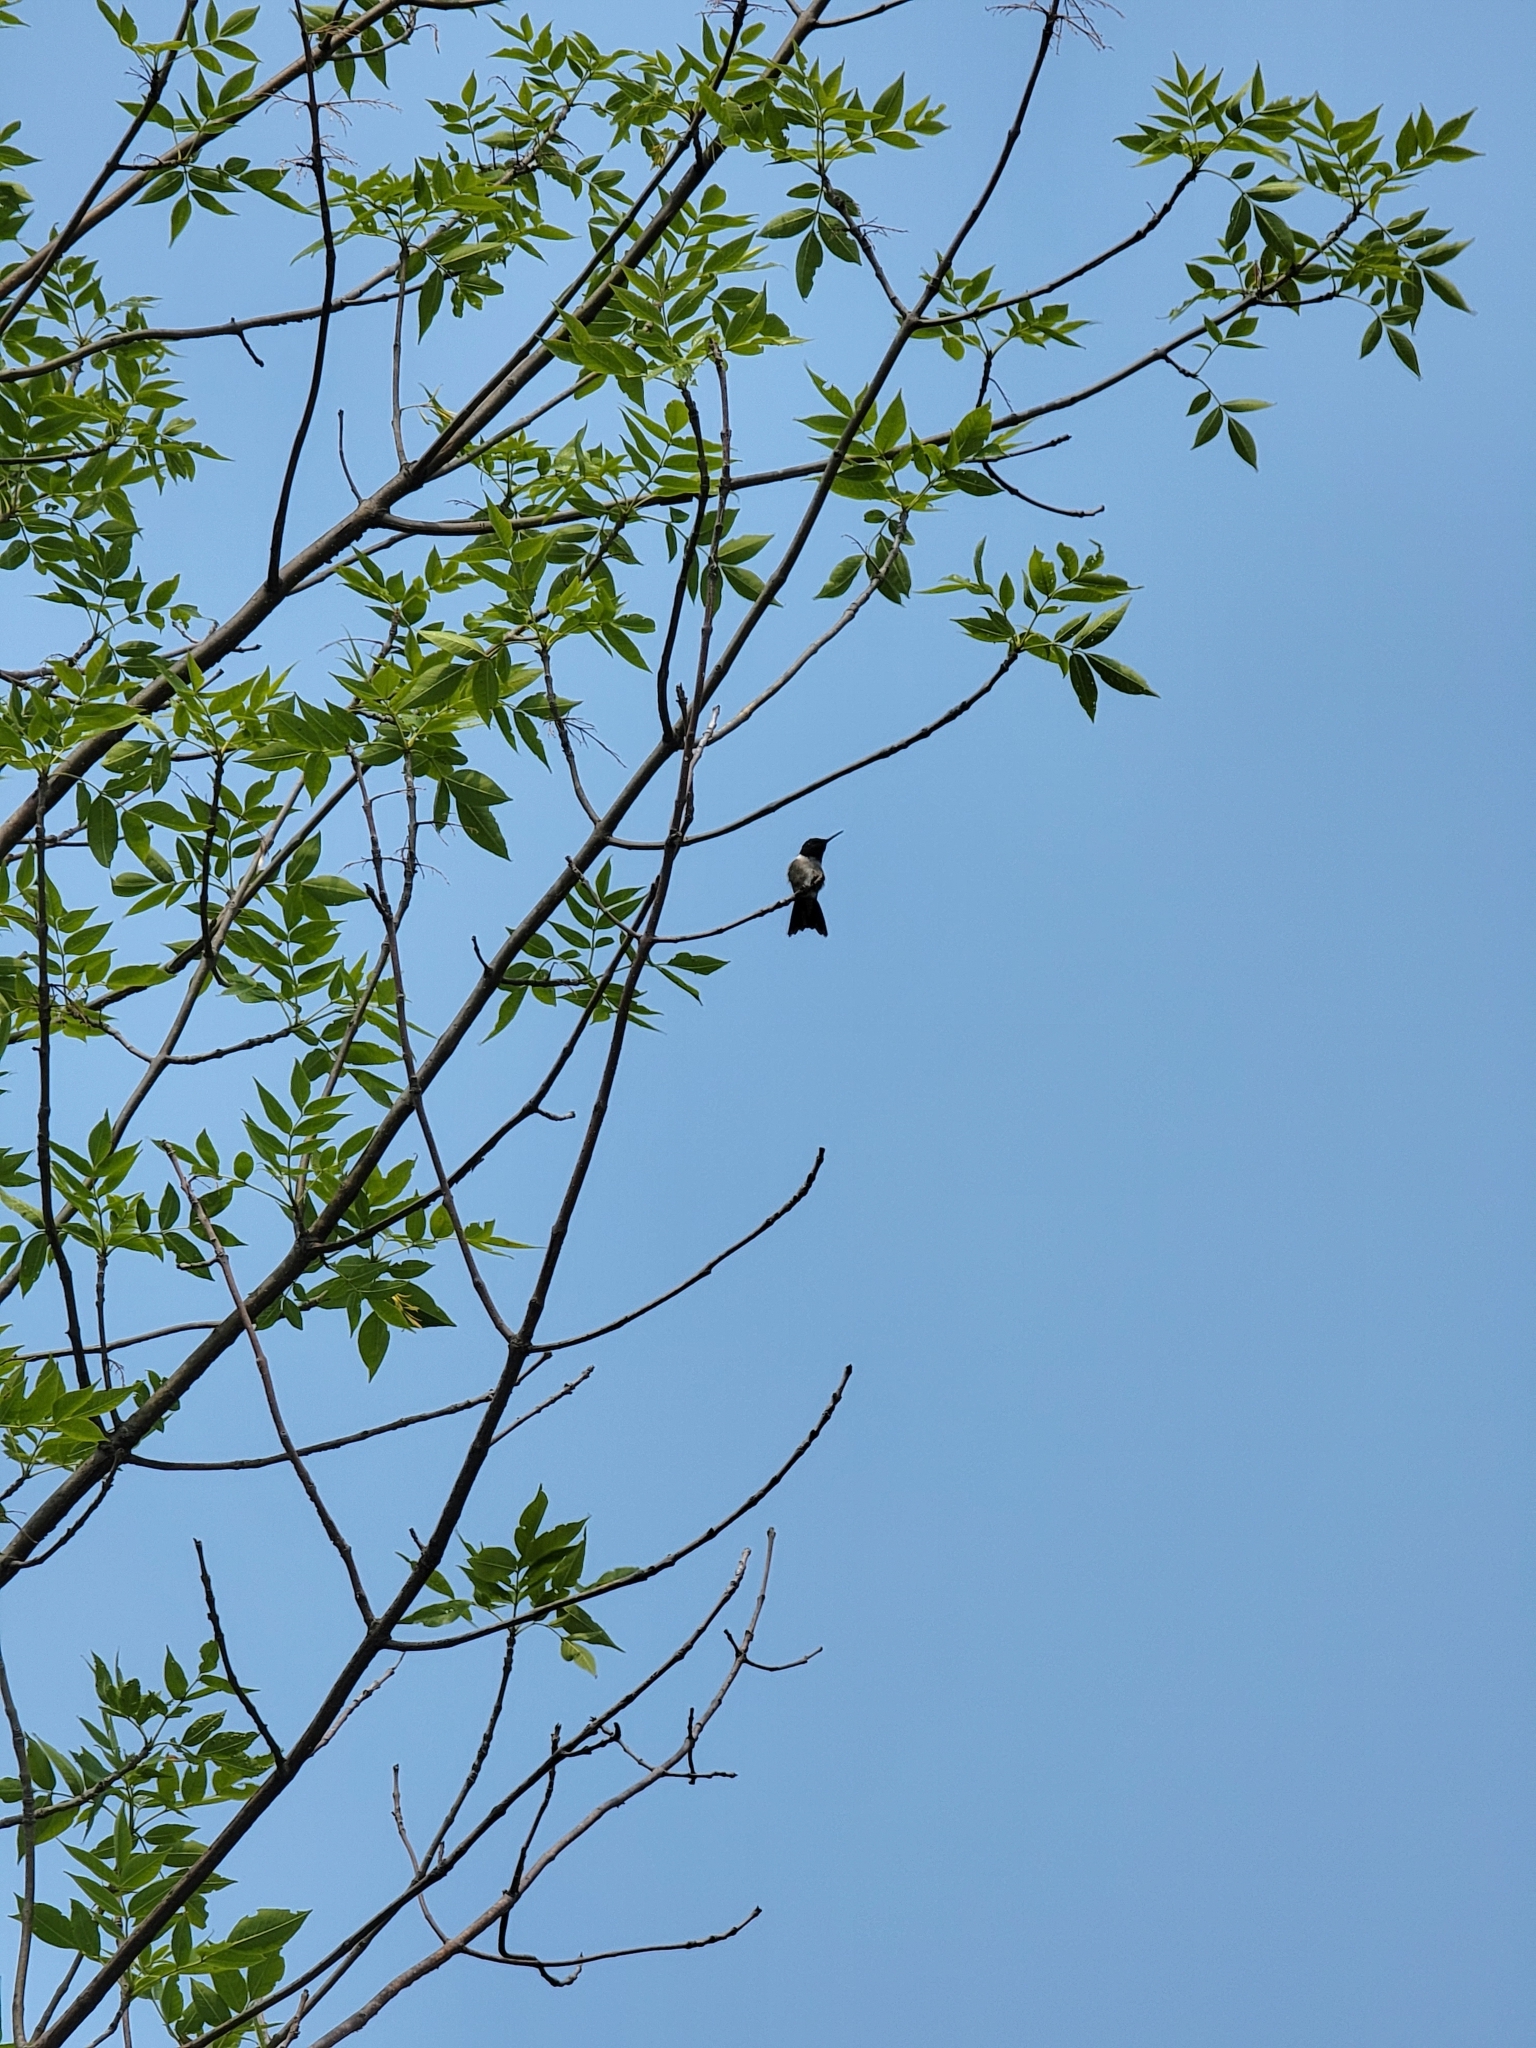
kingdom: Animalia
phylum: Chordata
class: Aves
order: Apodiformes
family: Trochilidae
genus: Archilochus
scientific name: Archilochus colubris
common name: Ruby-throated hummingbird
